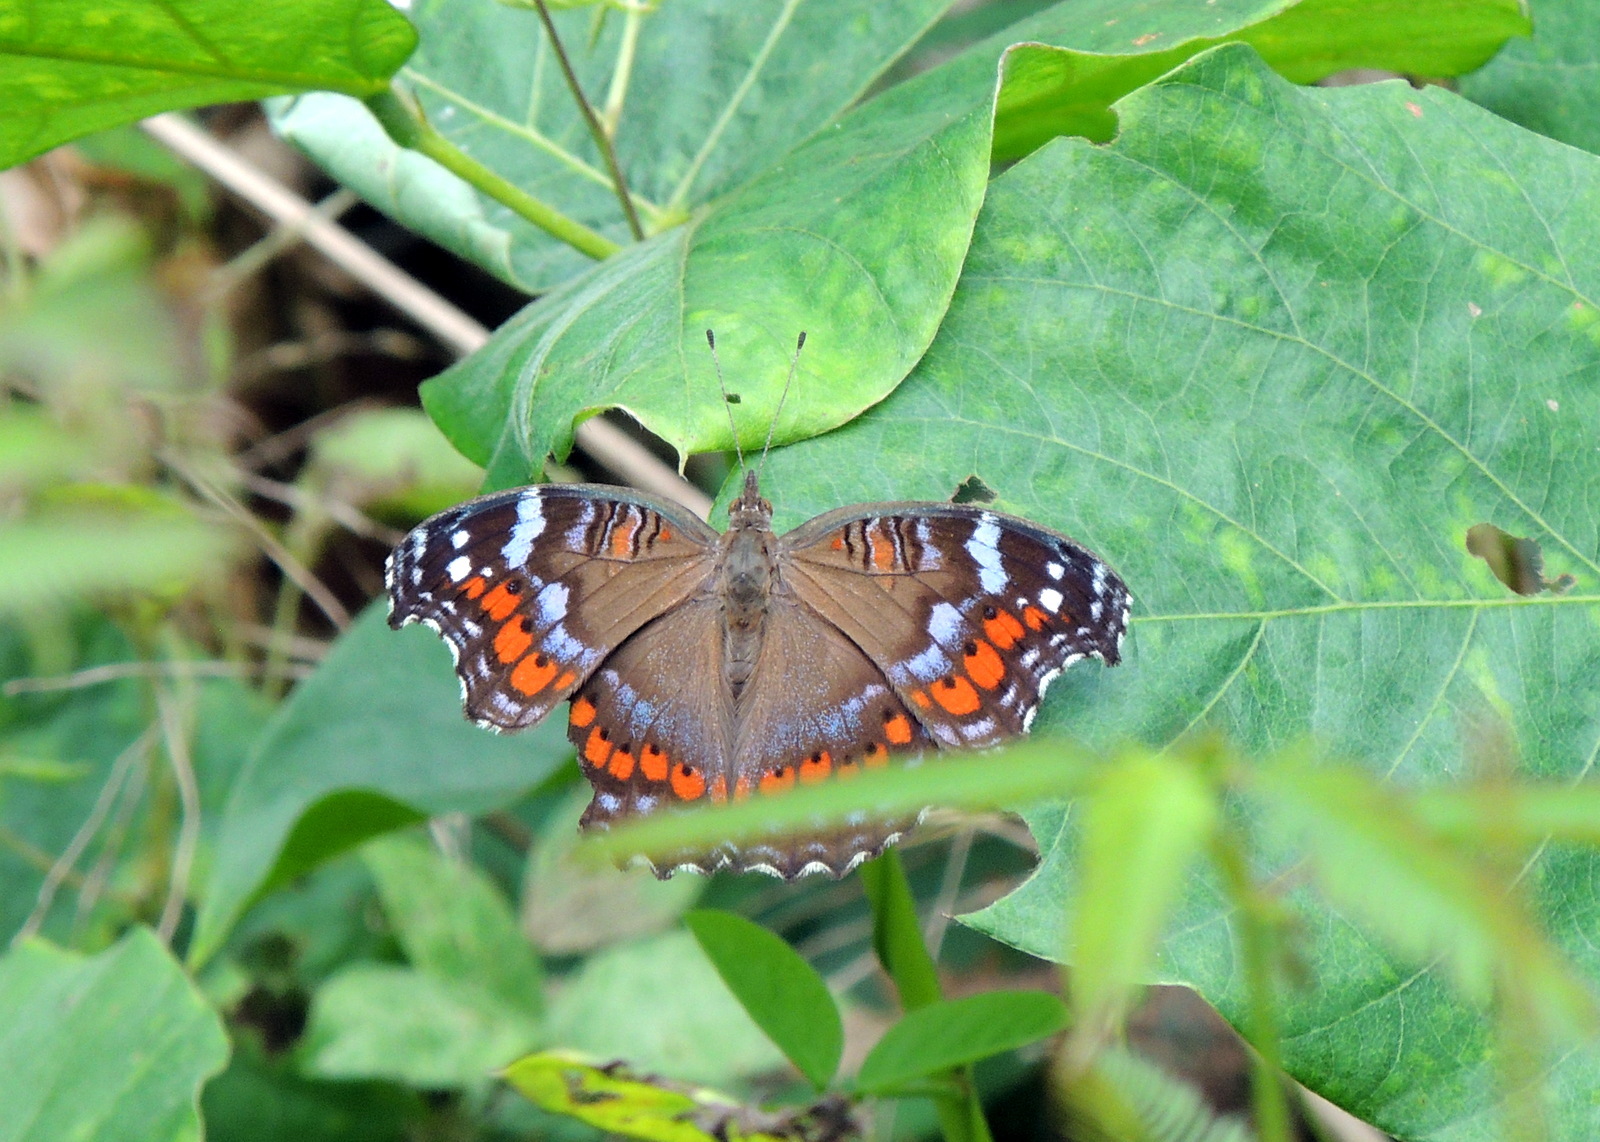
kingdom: Animalia
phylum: Arthropoda
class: Insecta
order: Lepidoptera
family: Nymphalidae
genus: Precis
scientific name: Precis octavia
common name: Gaudy commodore
